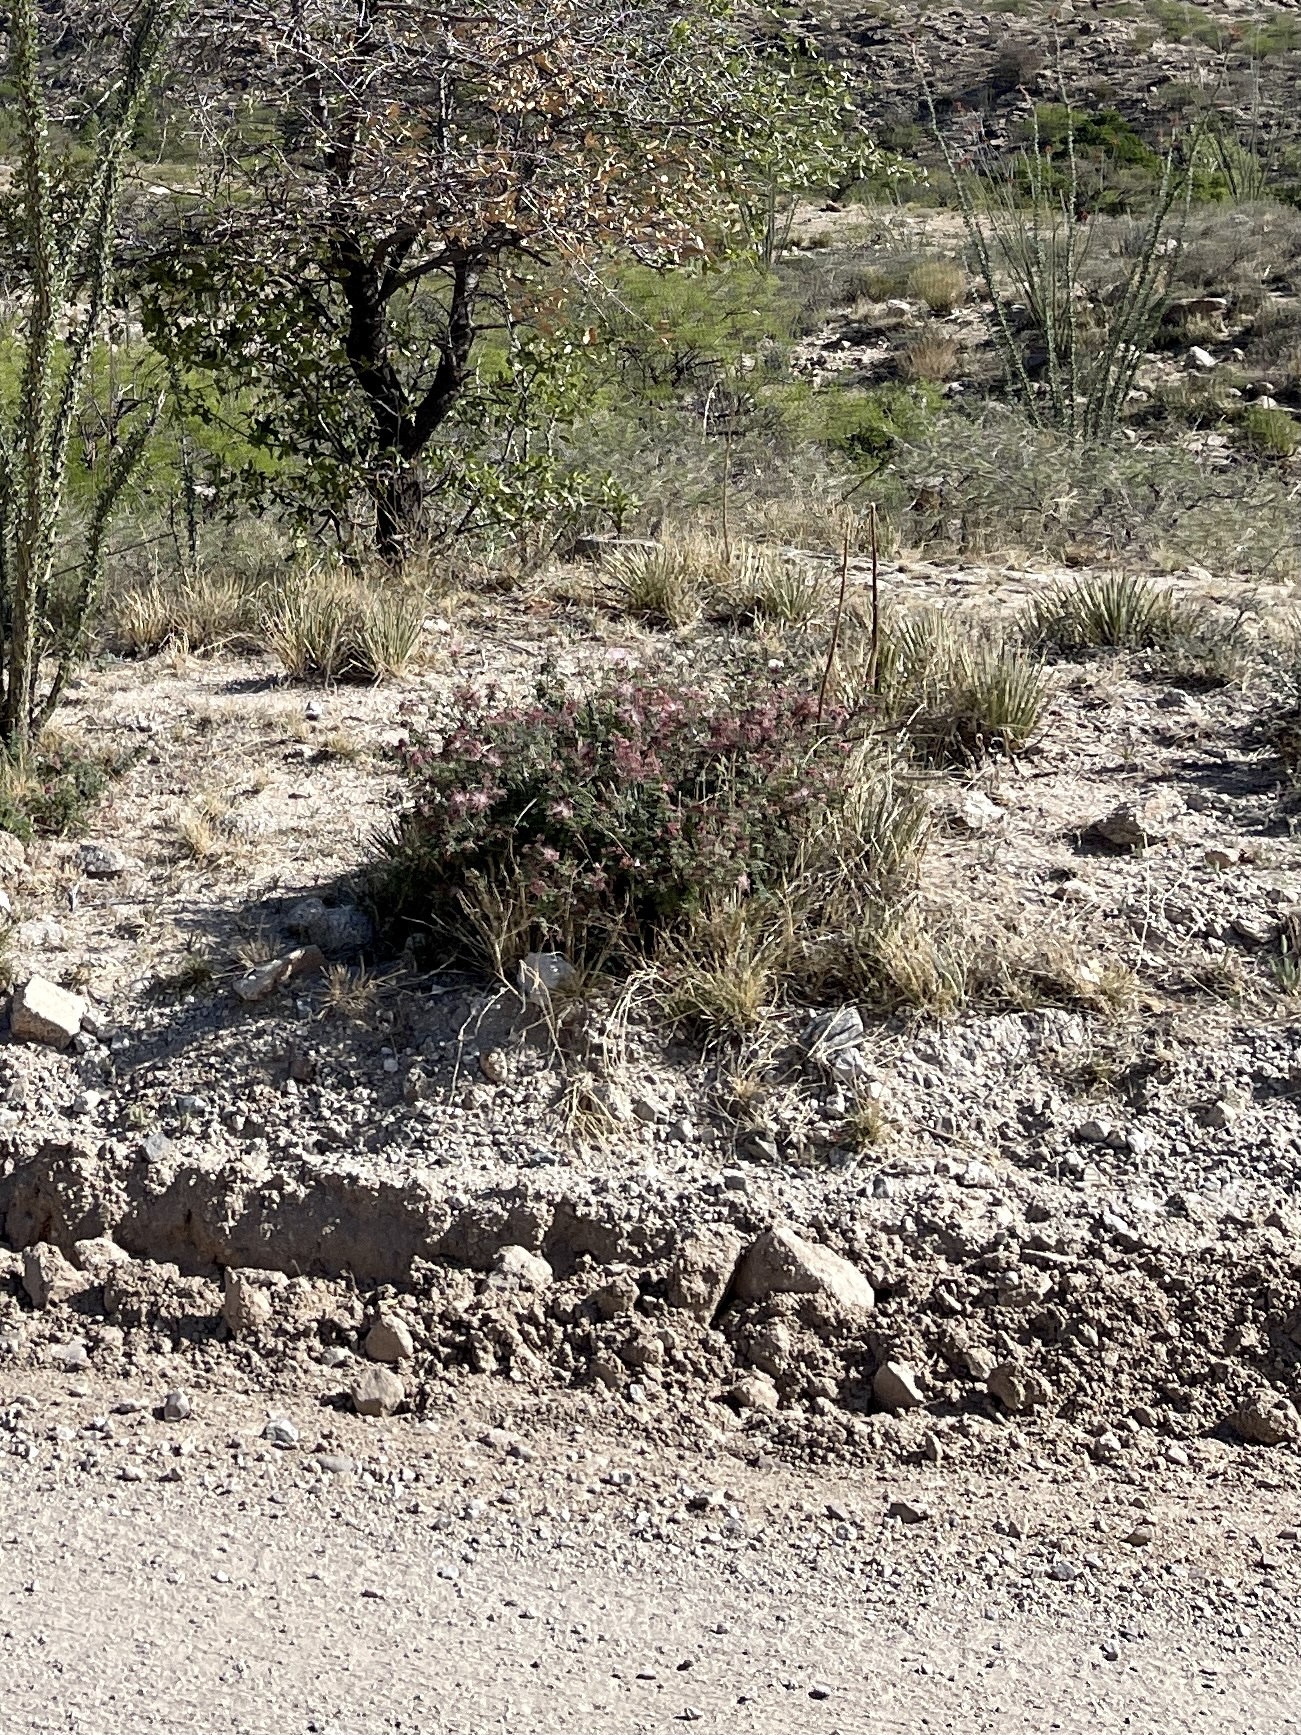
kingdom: Plantae
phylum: Tracheophyta
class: Magnoliopsida
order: Fabales
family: Fabaceae
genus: Calliandra
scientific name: Calliandra eriophylla
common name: Fairy-duster
